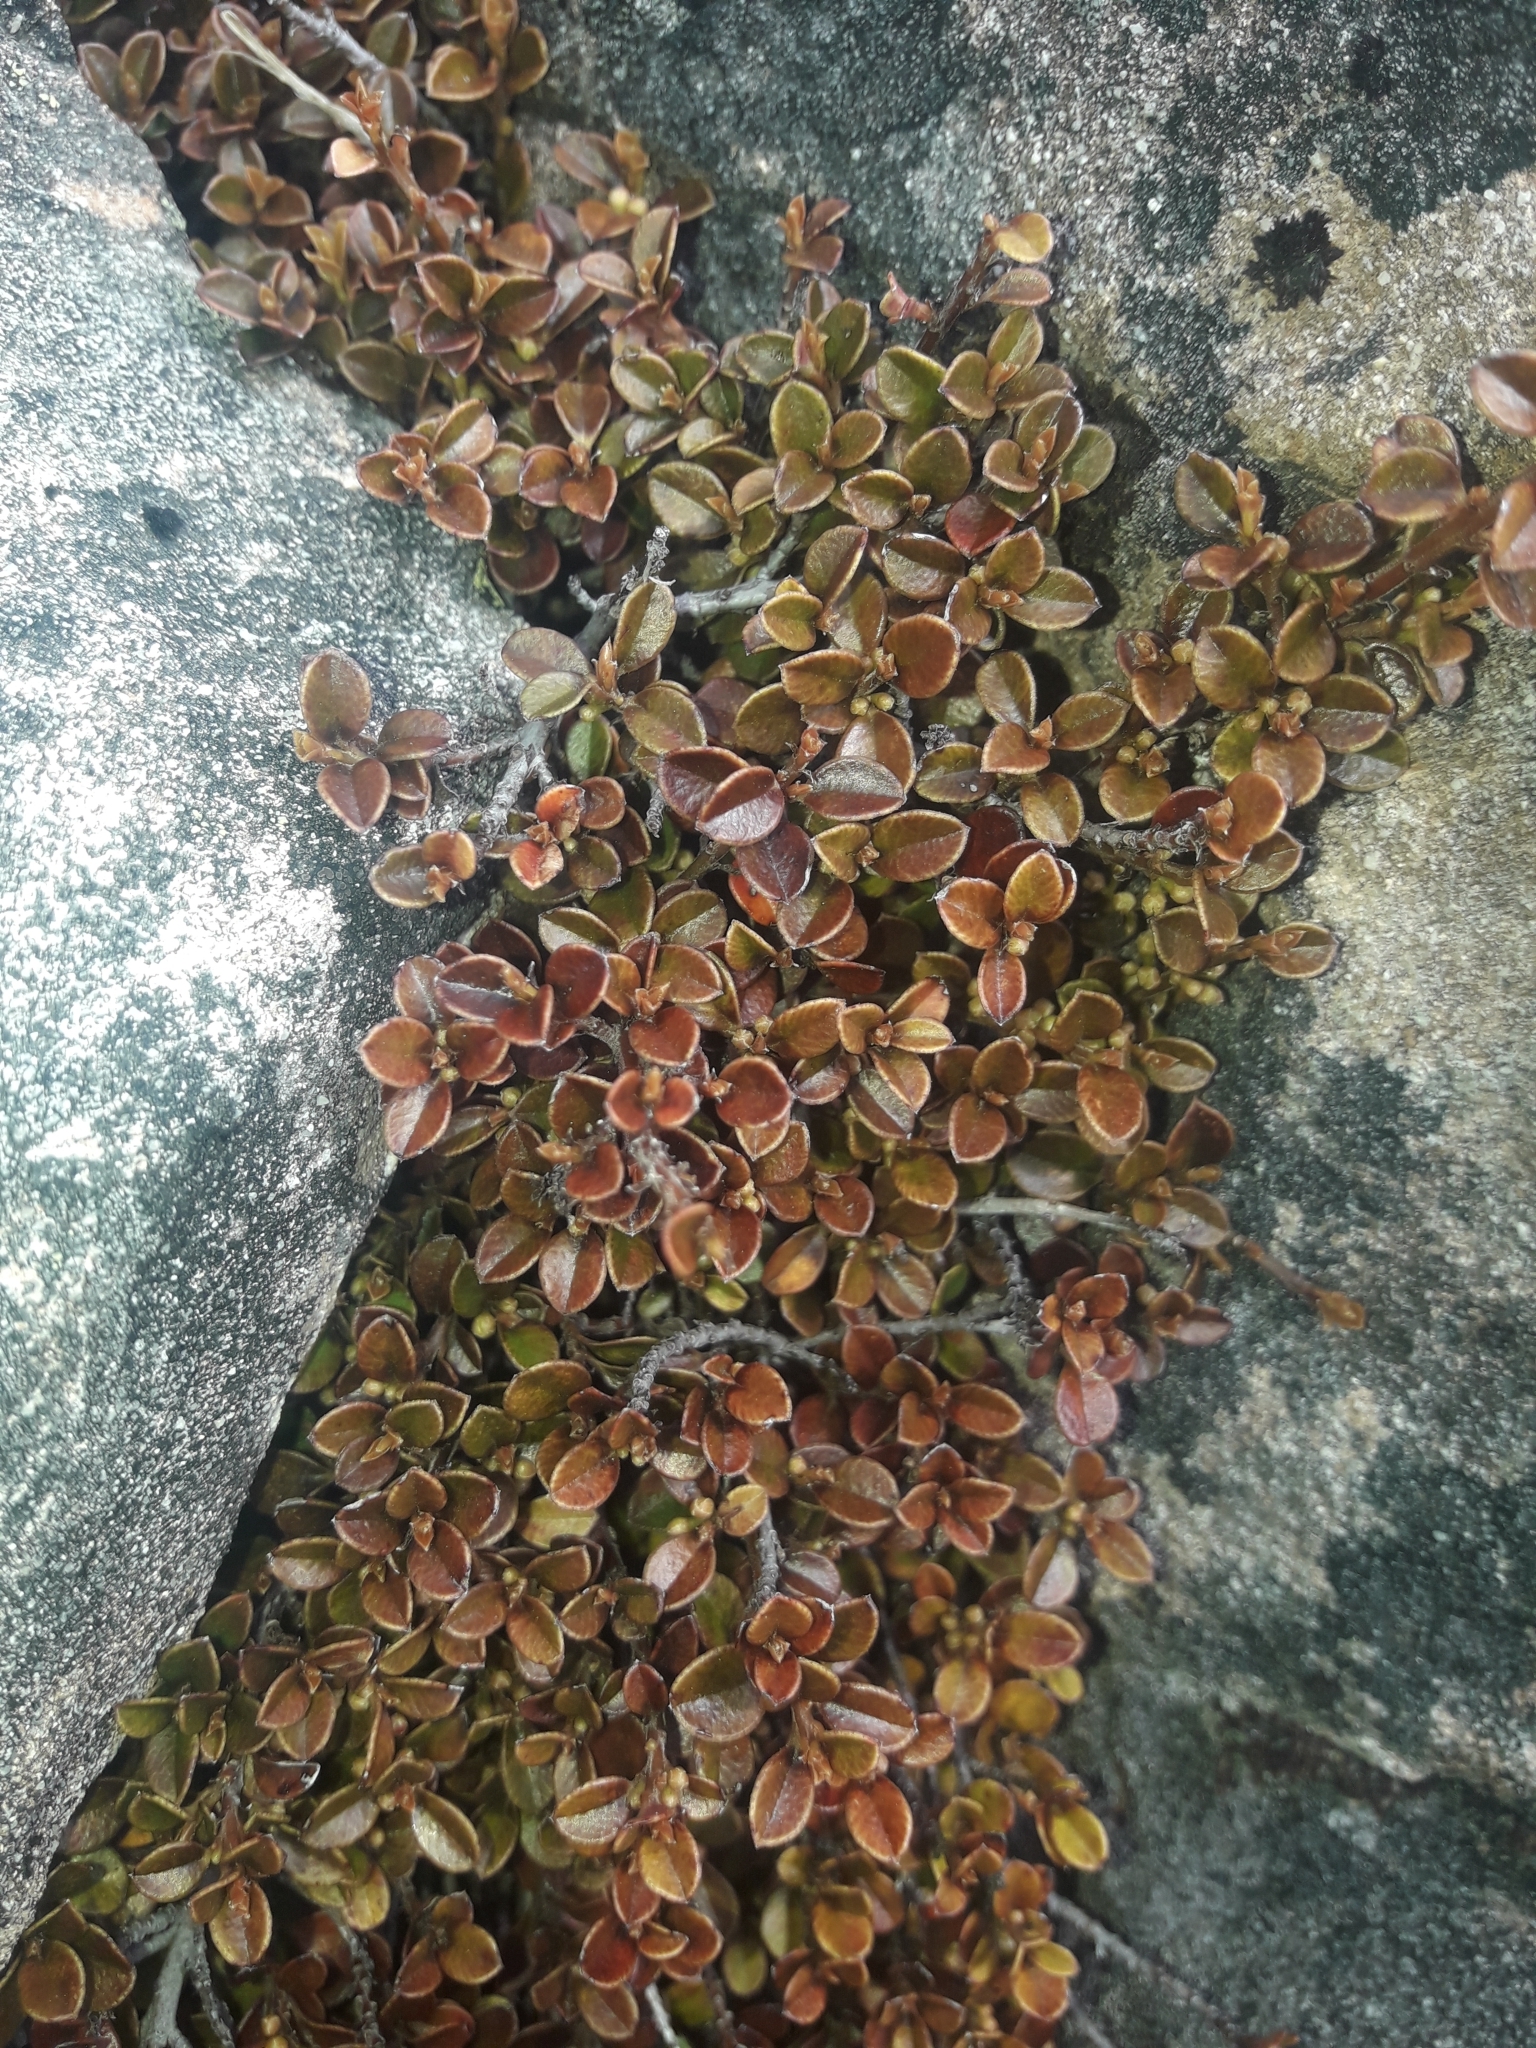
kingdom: Plantae
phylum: Tracheophyta
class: Magnoliopsida
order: Ericales
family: Primulaceae
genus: Myrsine
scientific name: Myrsine nummularia
